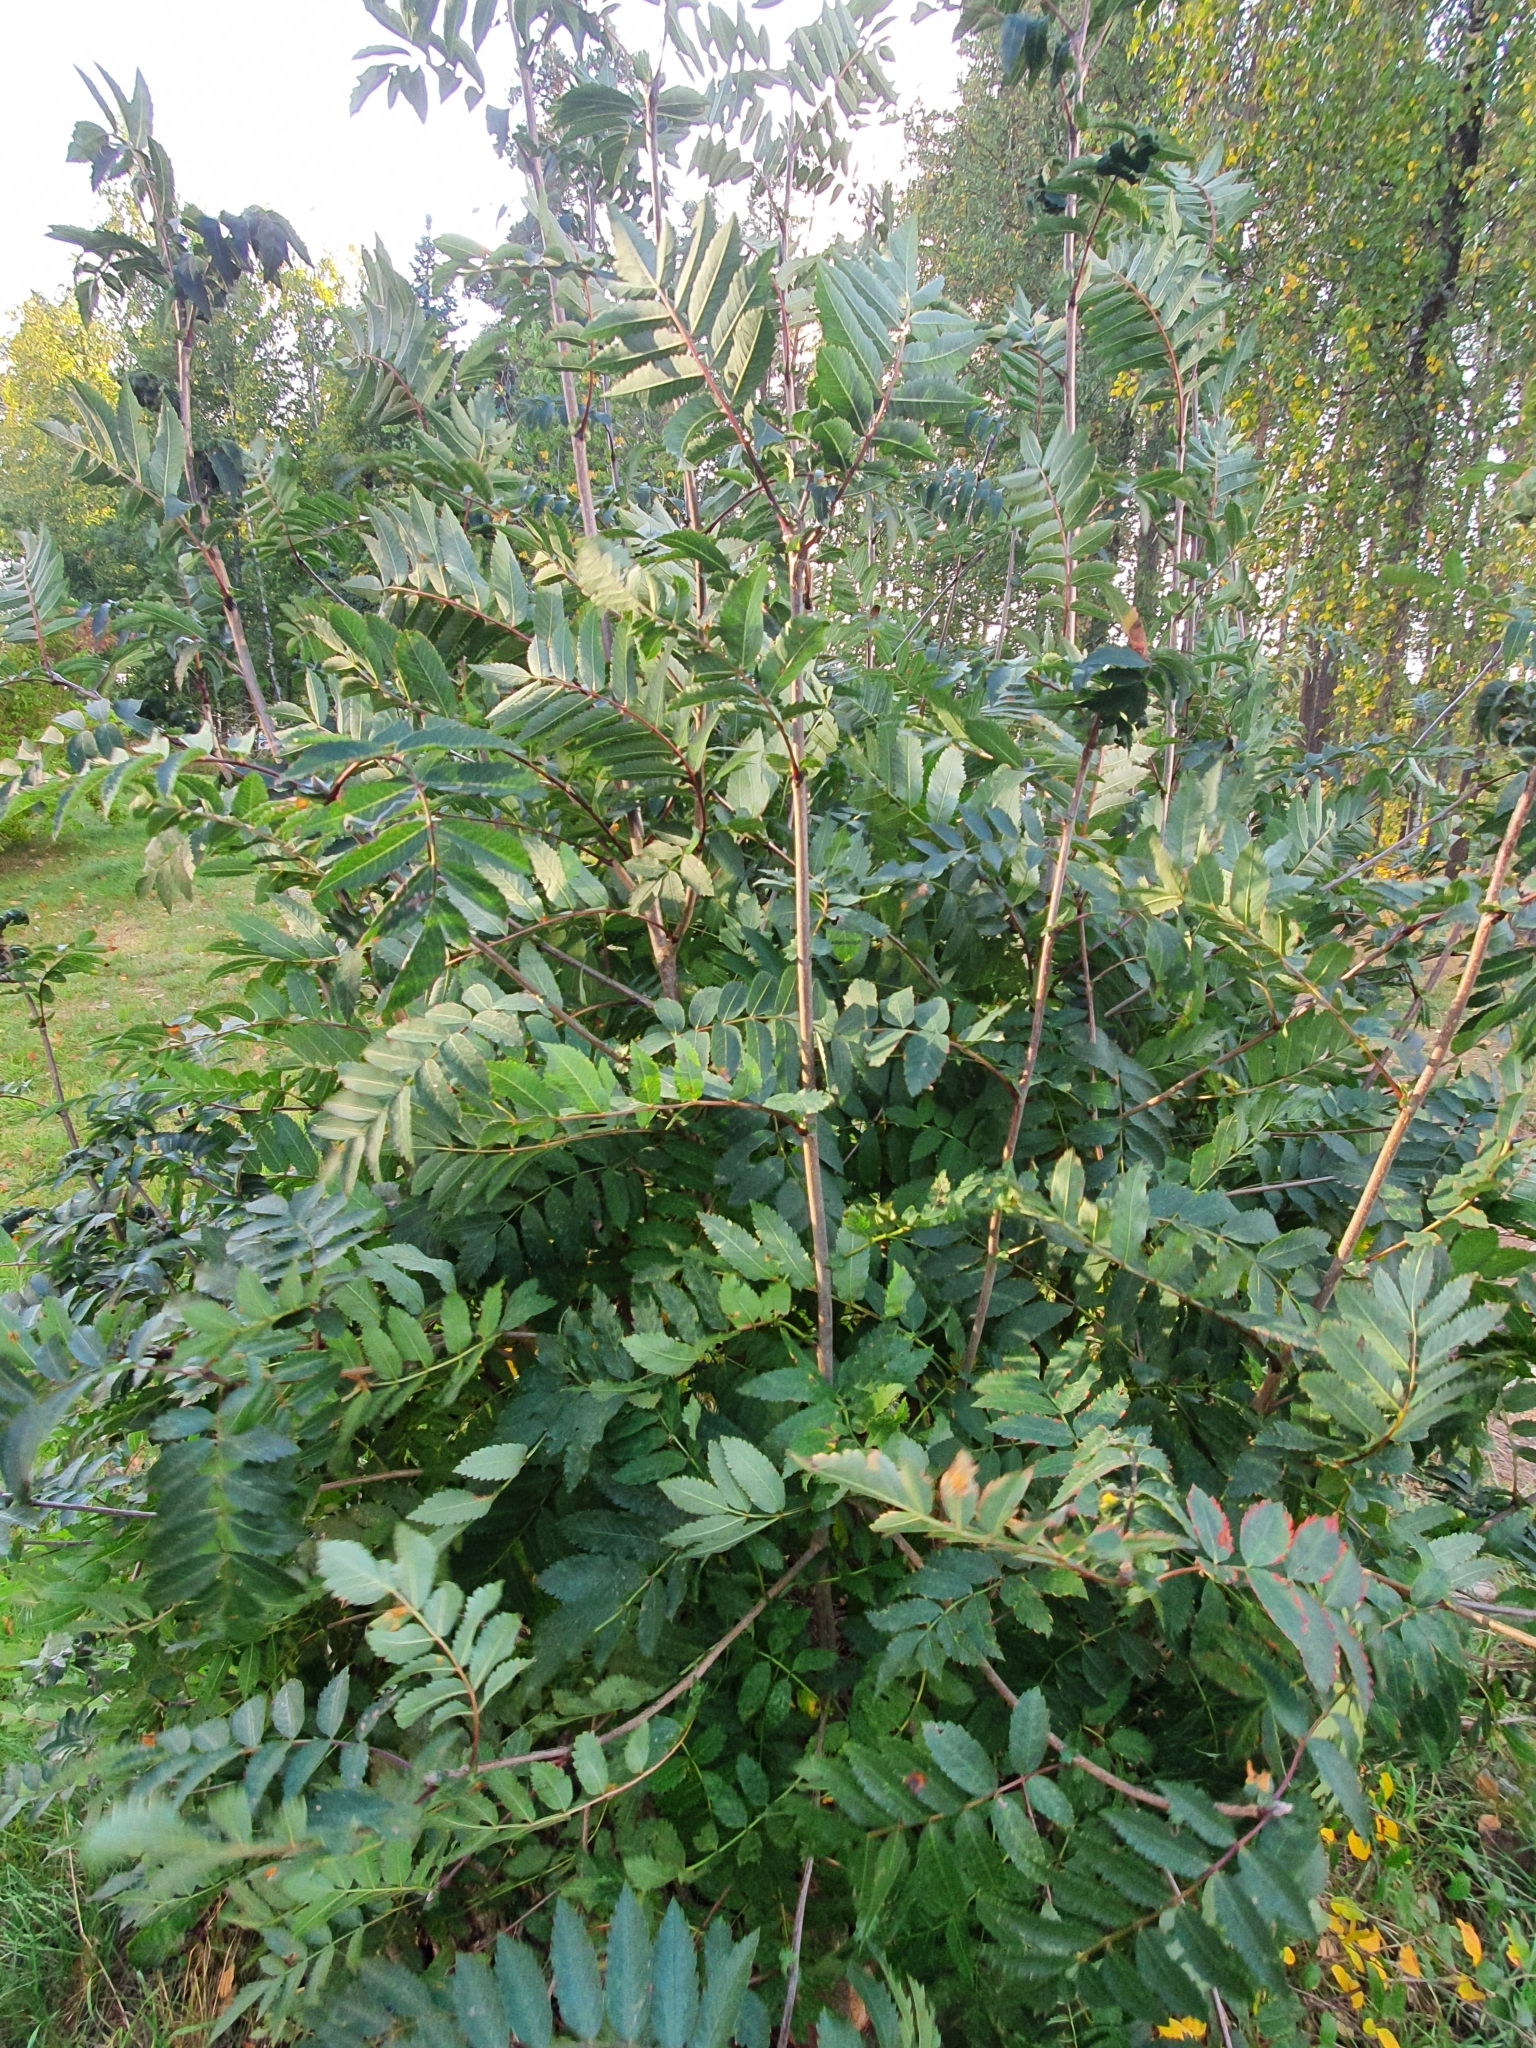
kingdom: Plantae
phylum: Tracheophyta
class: Magnoliopsida
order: Rosales
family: Rosaceae
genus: Sorbus
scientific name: Sorbus aucuparia
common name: Rowan
